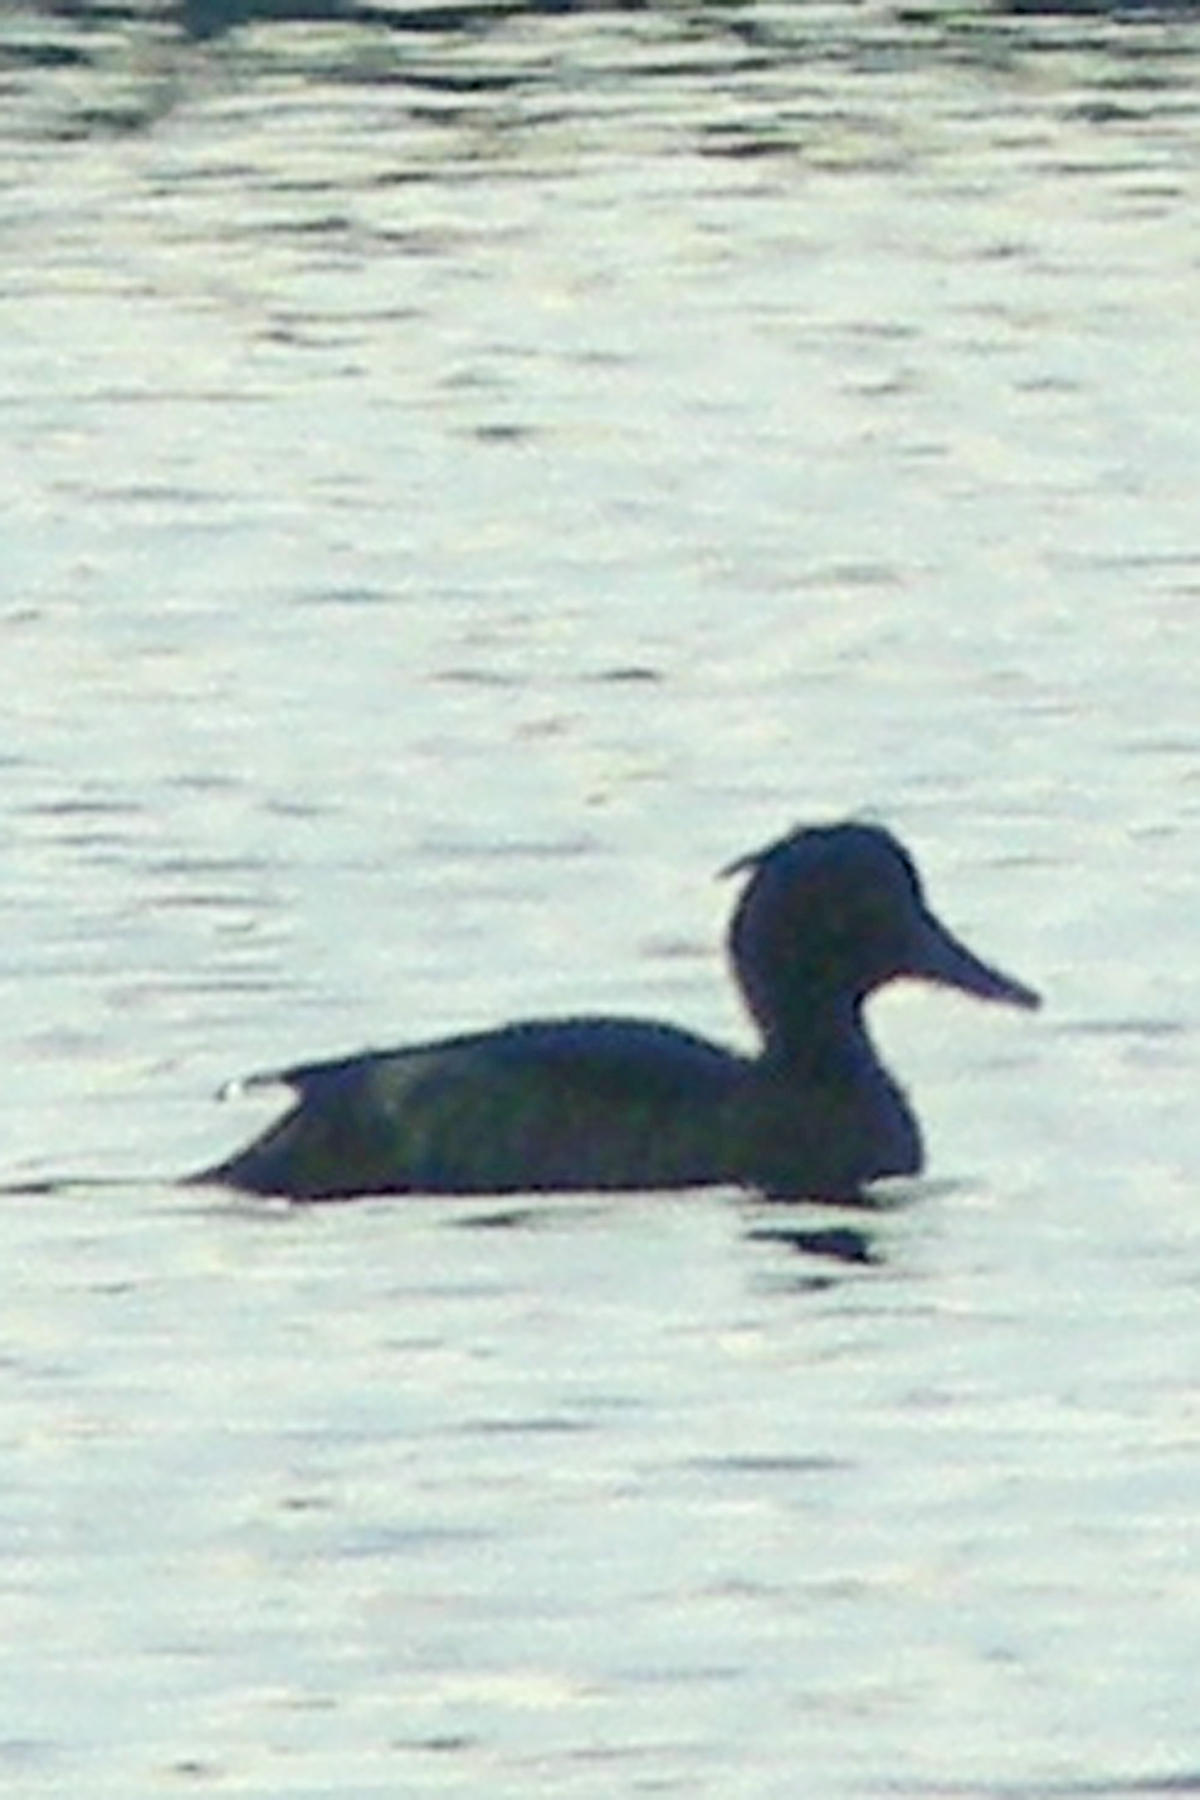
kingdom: Animalia
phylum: Chordata
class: Aves
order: Anseriformes
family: Anatidae
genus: Aythya
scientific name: Aythya fuligula
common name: Tufted duck
